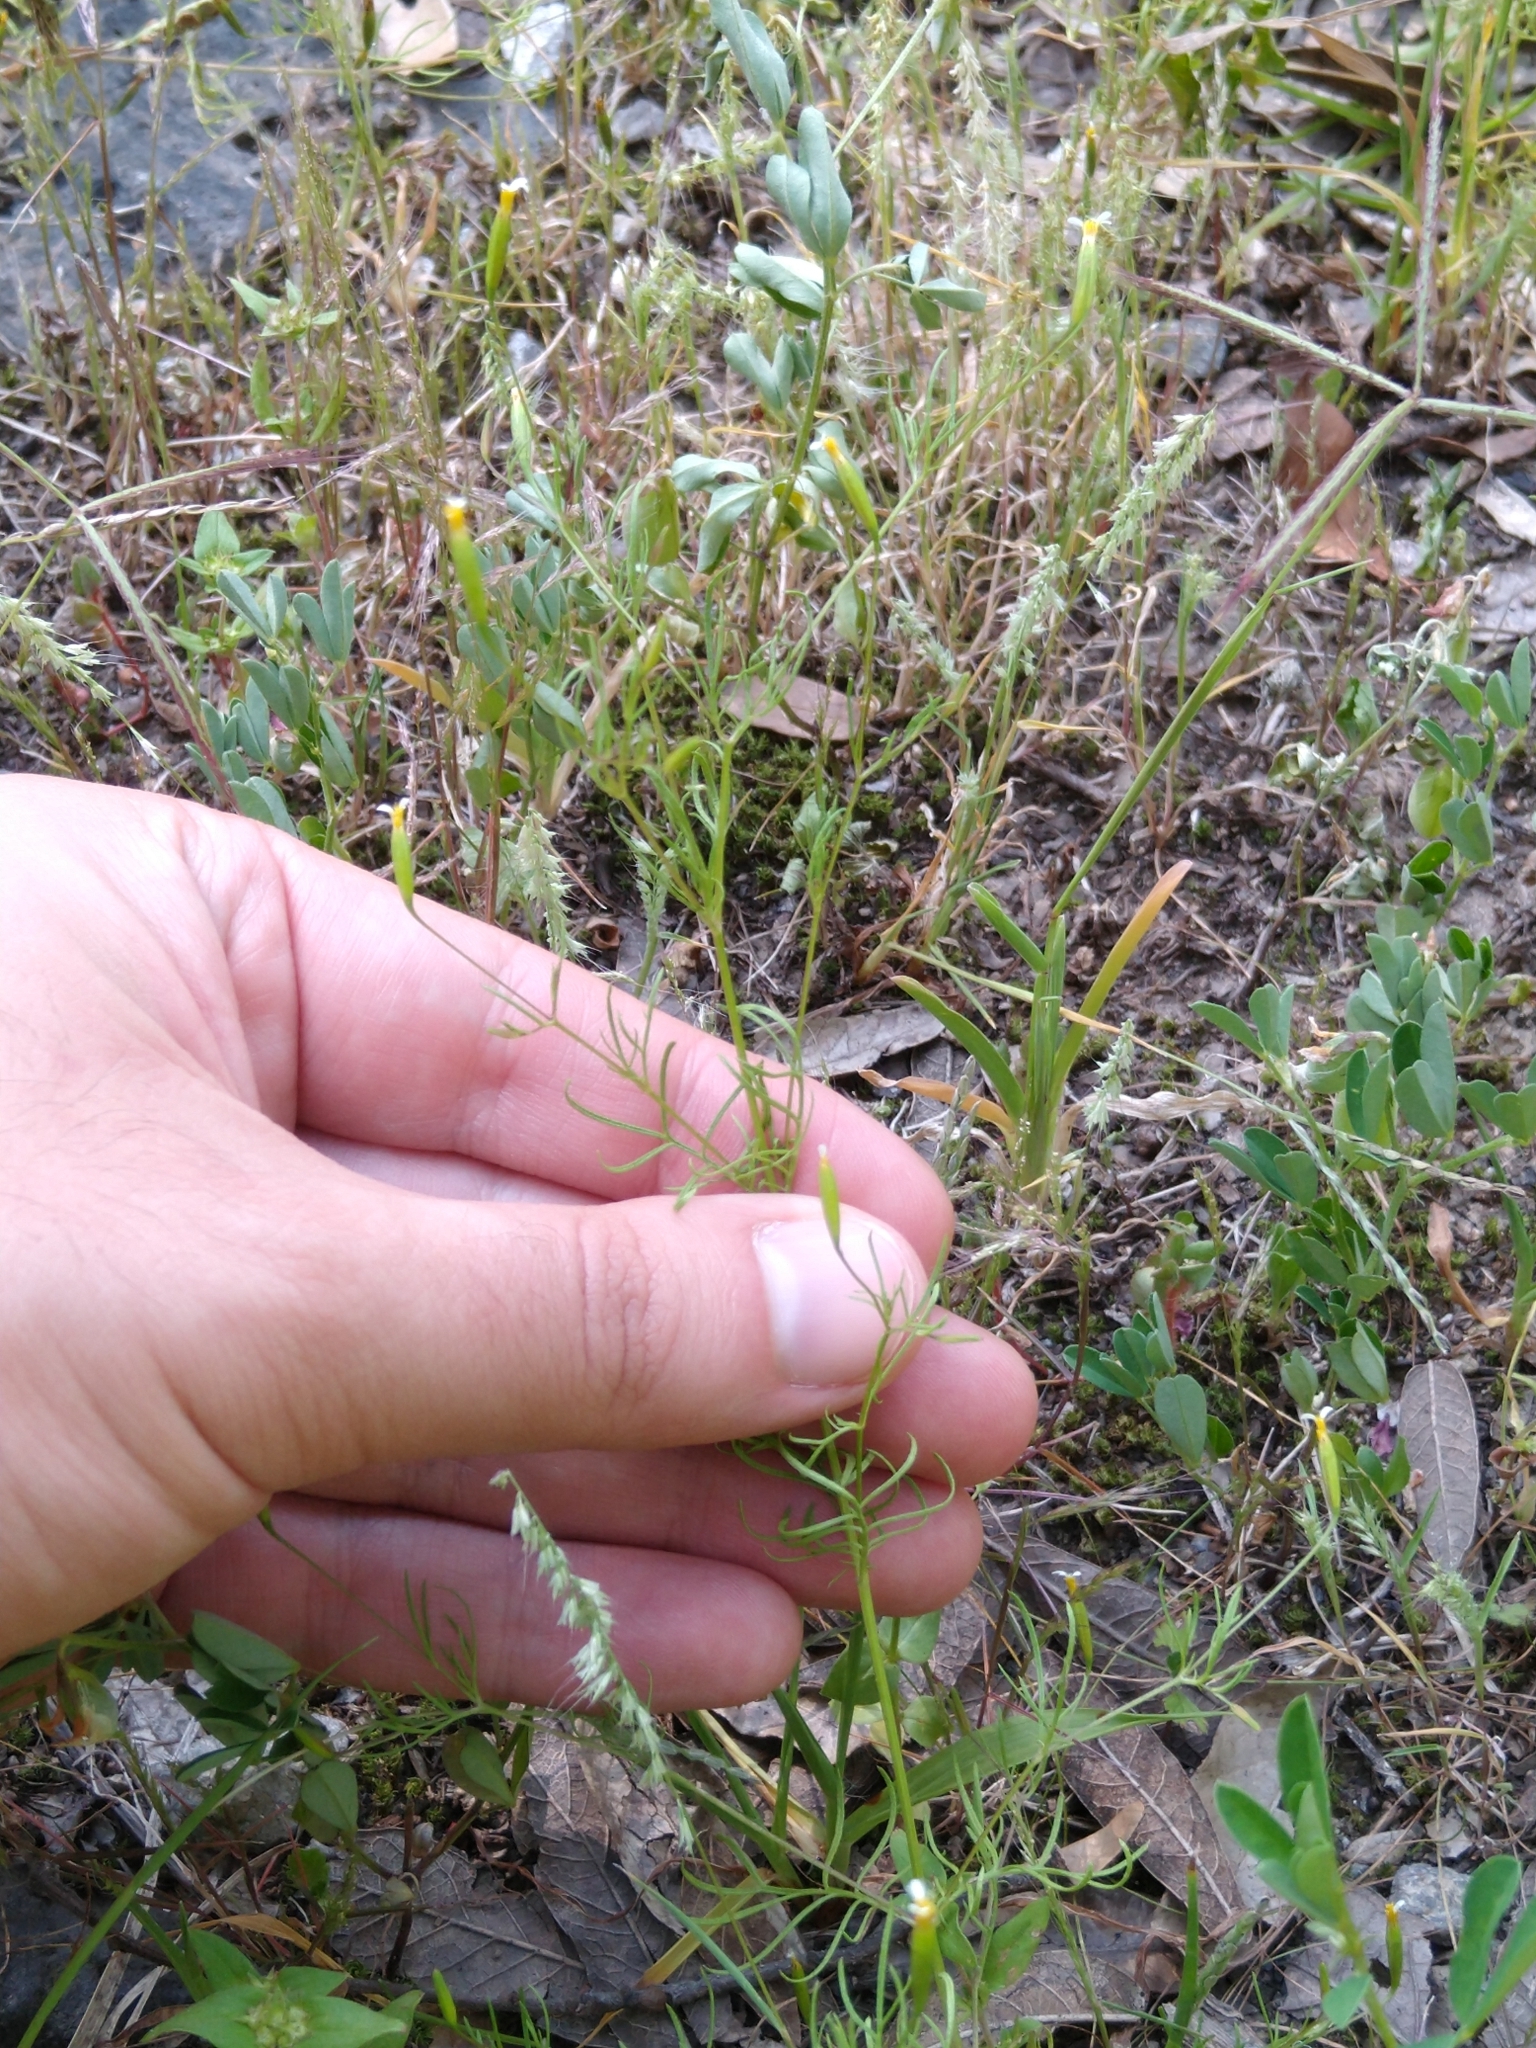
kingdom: Plantae
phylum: Tracheophyta
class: Magnoliopsida
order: Asterales
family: Asteraceae
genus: Tagetes
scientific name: Tagetes micrantha
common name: Licorice marigold
